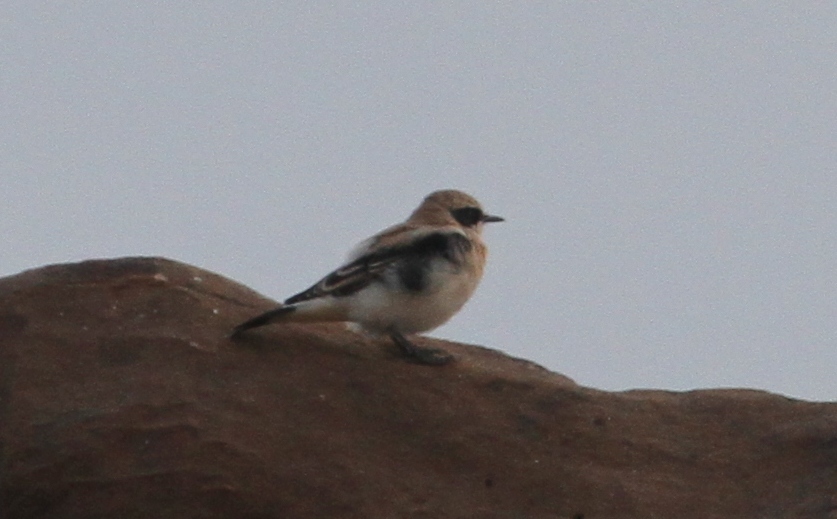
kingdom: Animalia
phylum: Chordata
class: Aves
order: Passeriformes
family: Muscicapidae
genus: Oenanthe
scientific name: Oenanthe hispanica
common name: Black-eared wheatear
